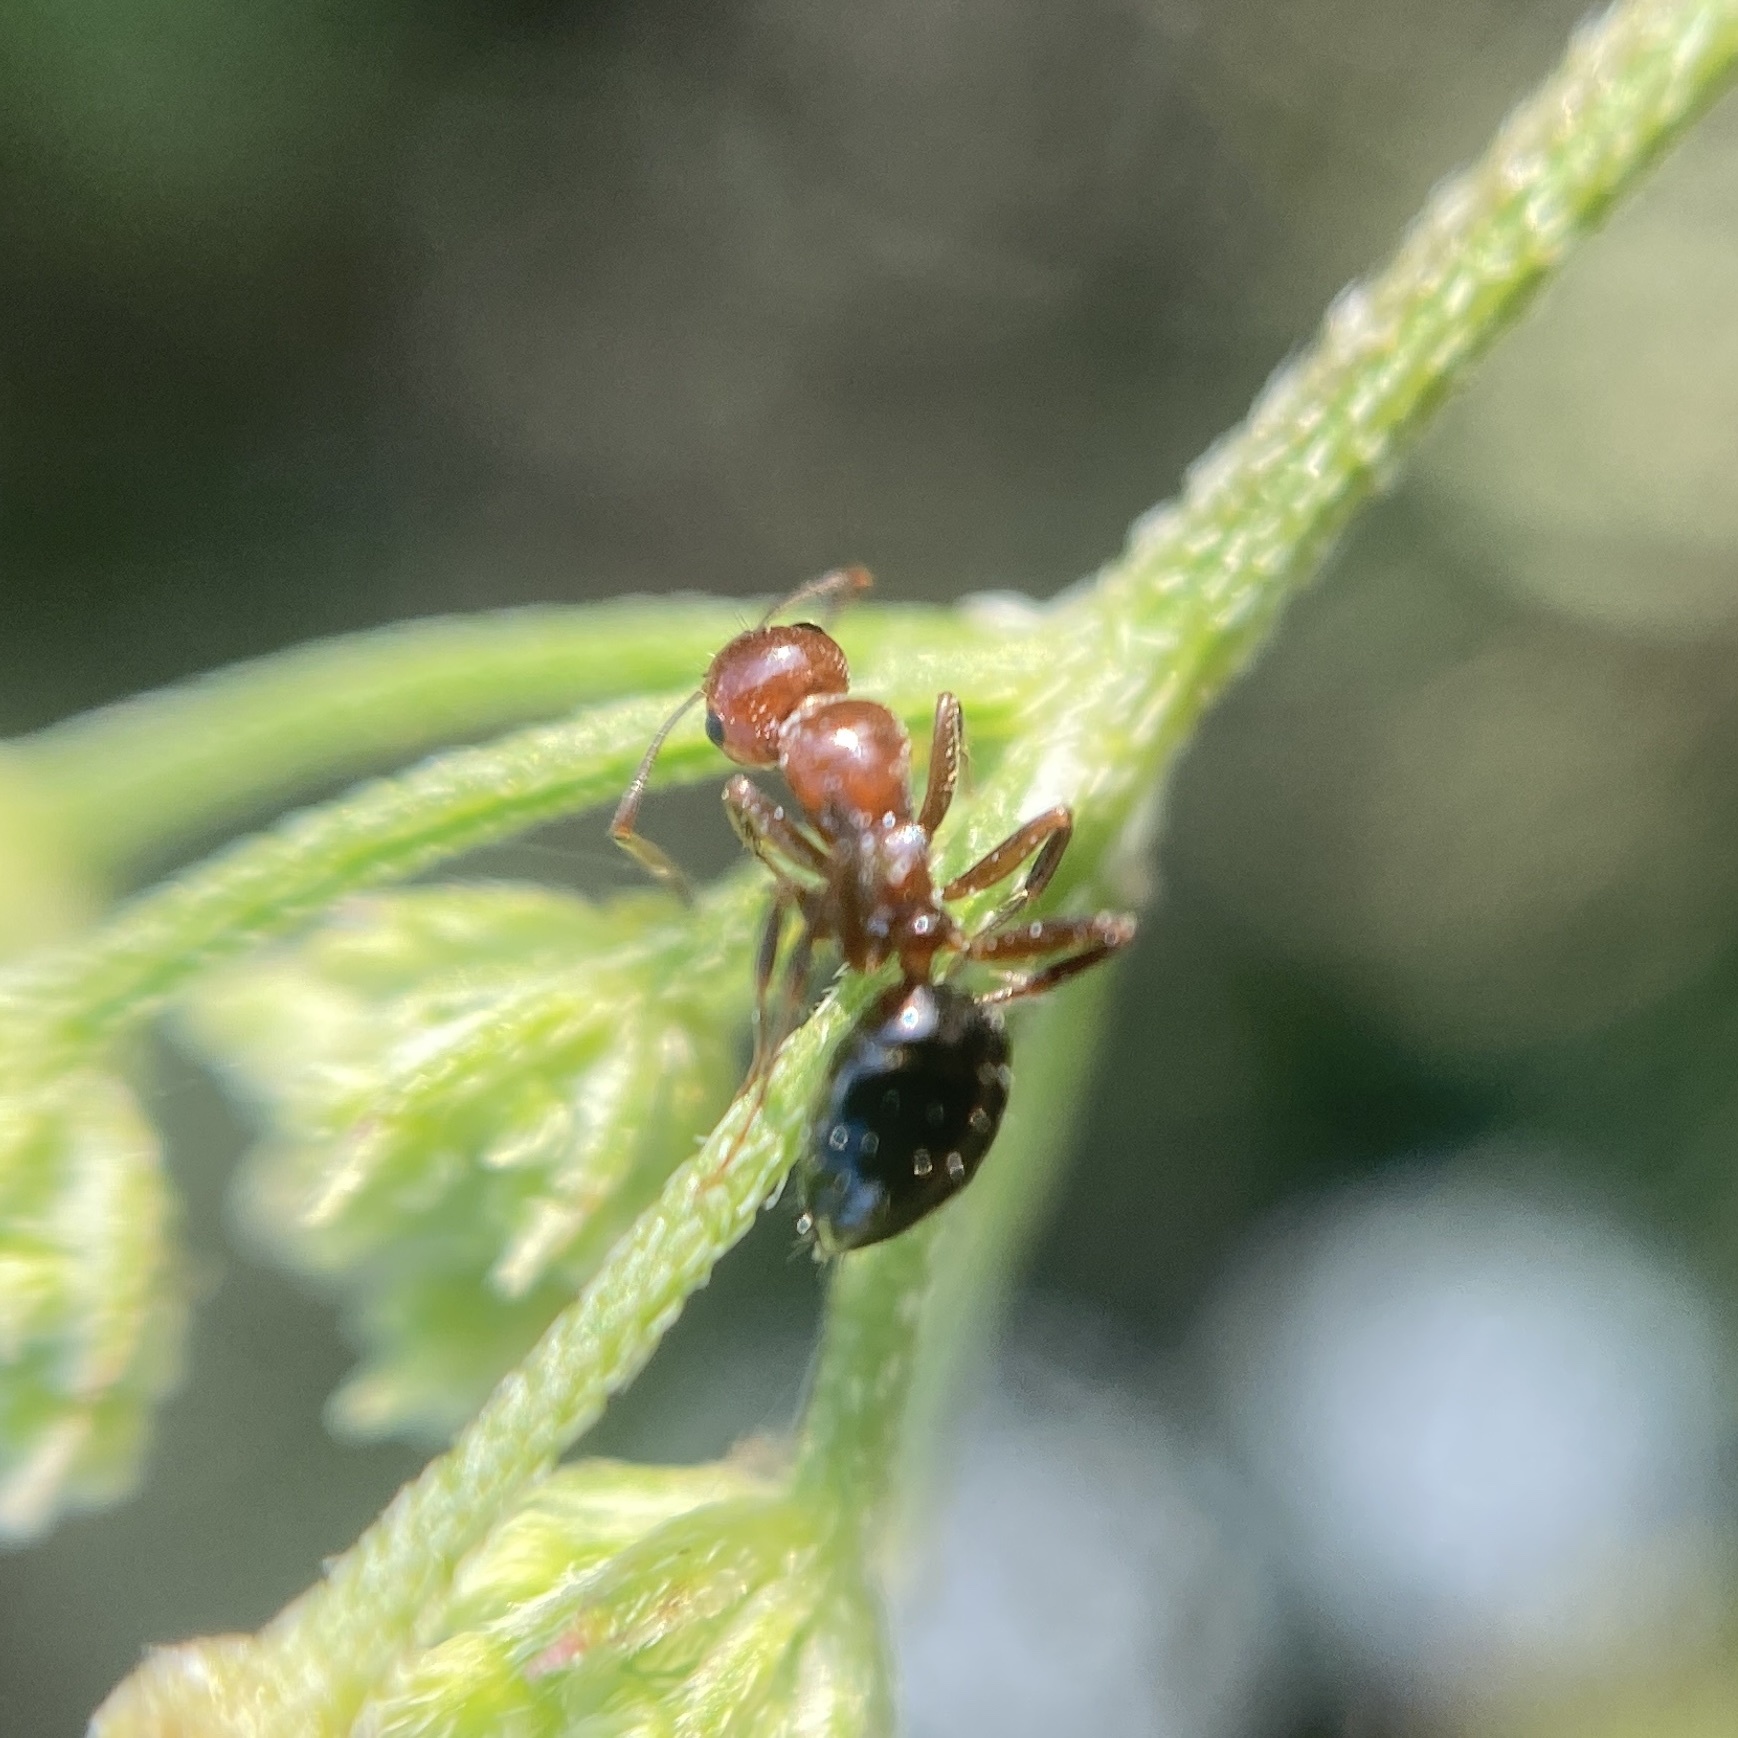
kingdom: Animalia
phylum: Arthropoda
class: Insecta
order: Hymenoptera
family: Formicidae
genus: Camponotus
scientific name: Camponotus lateralis
